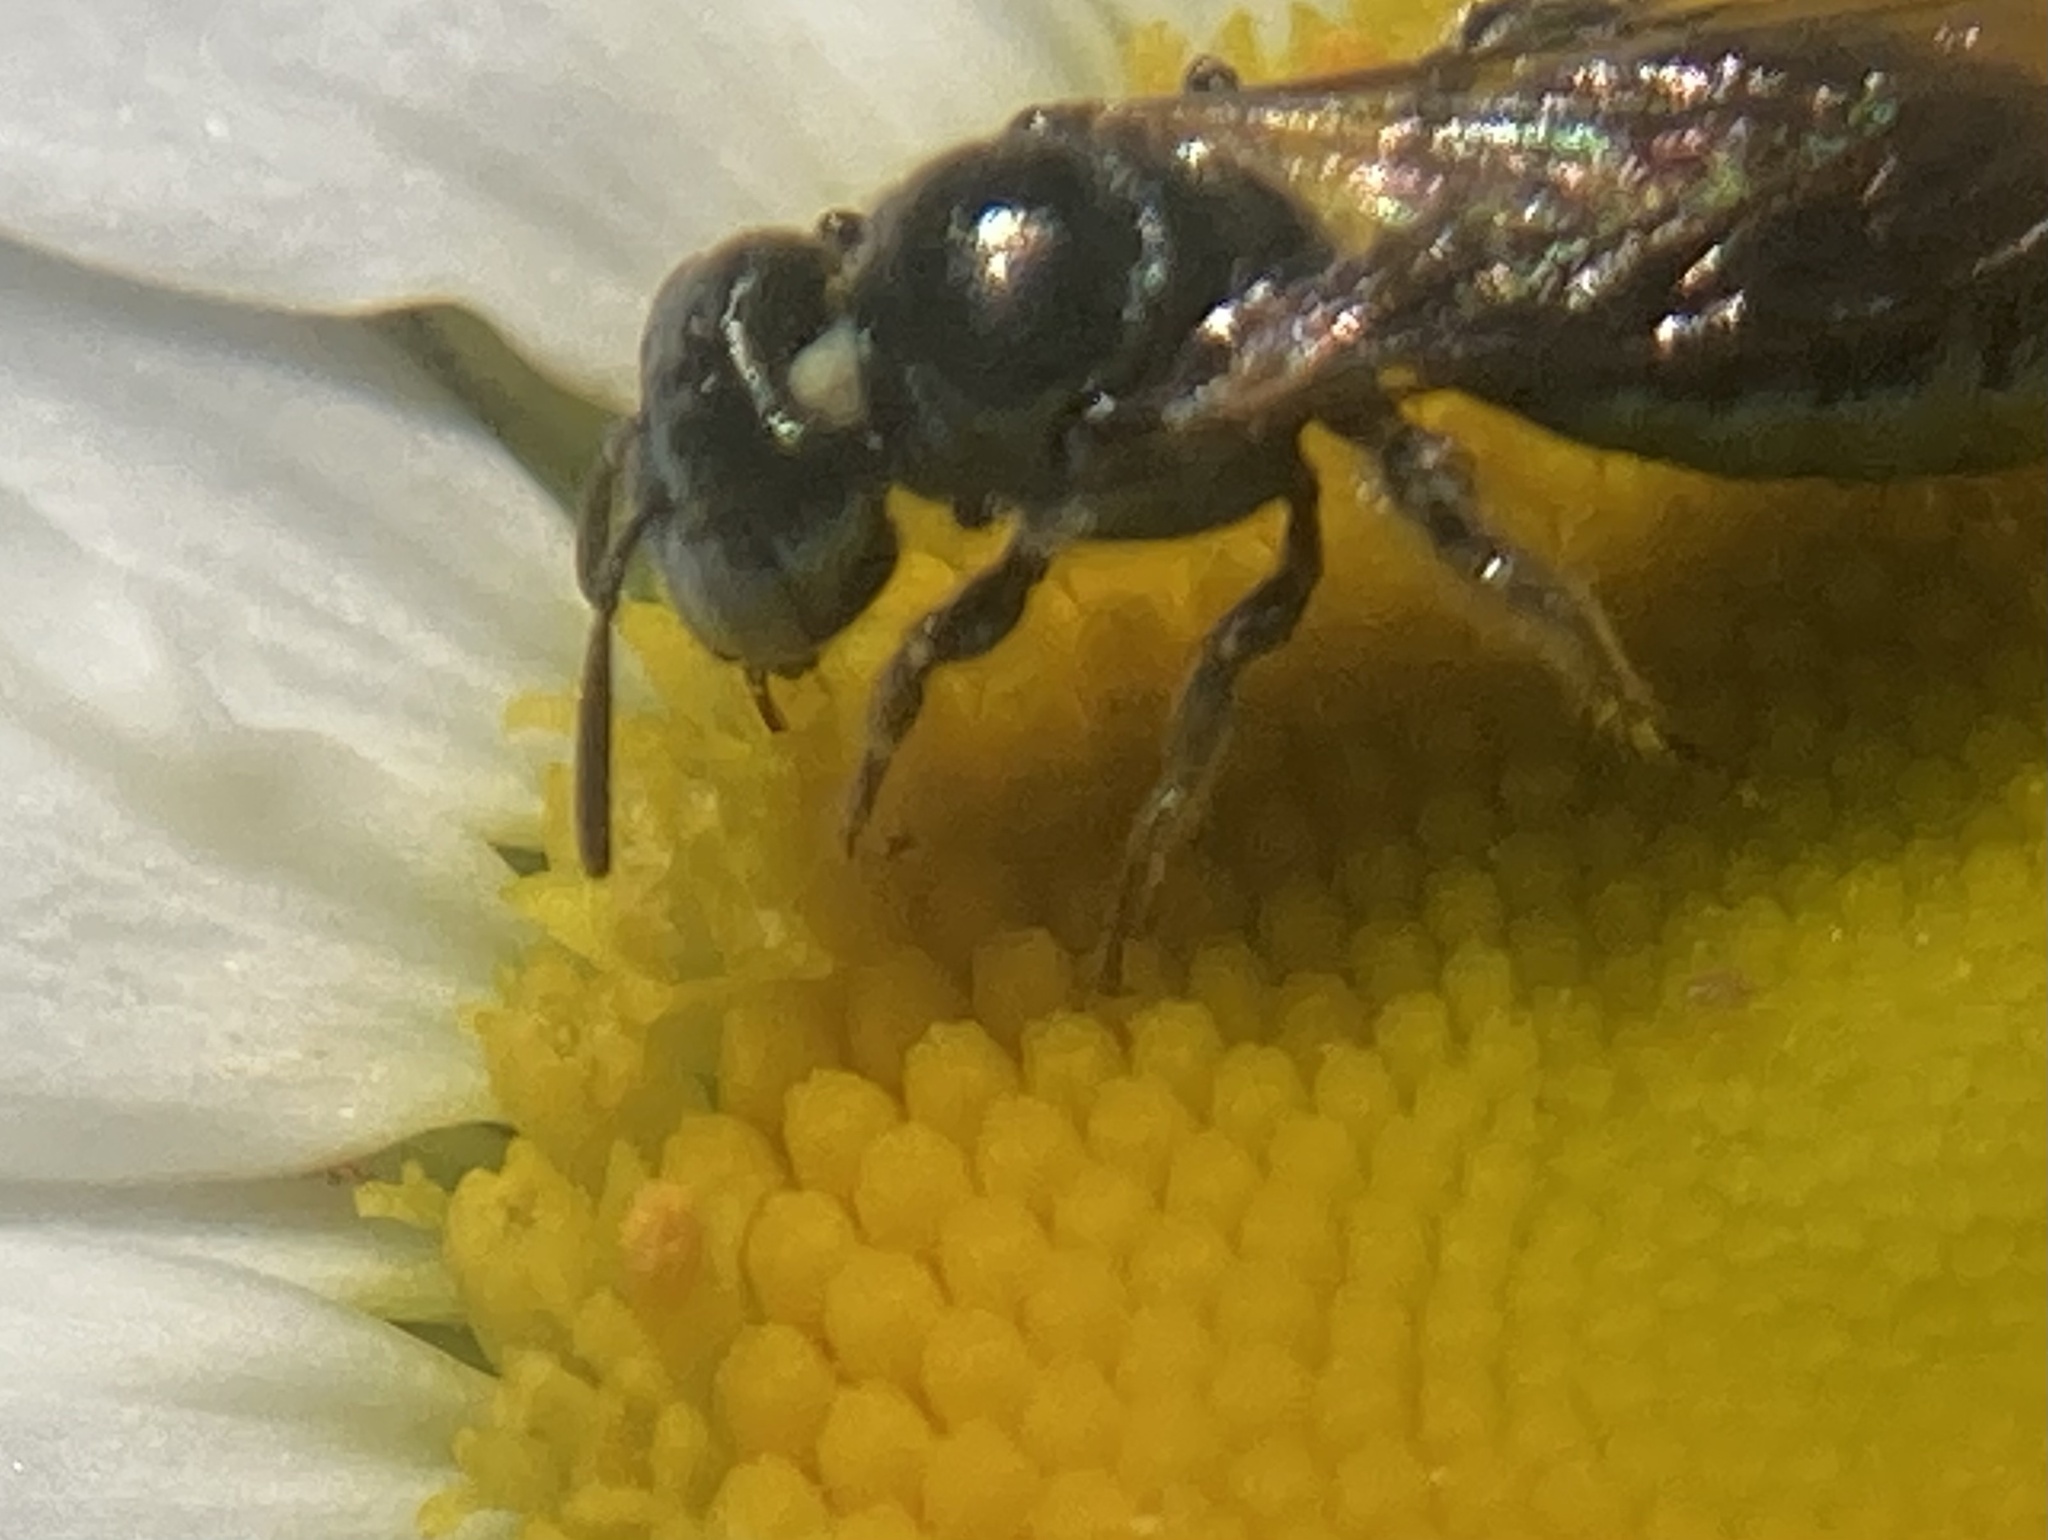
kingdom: Animalia
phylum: Arthropoda
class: Insecta
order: Hymenoptera
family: Apidae
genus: Zadontomerus
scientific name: Zadontomerus
